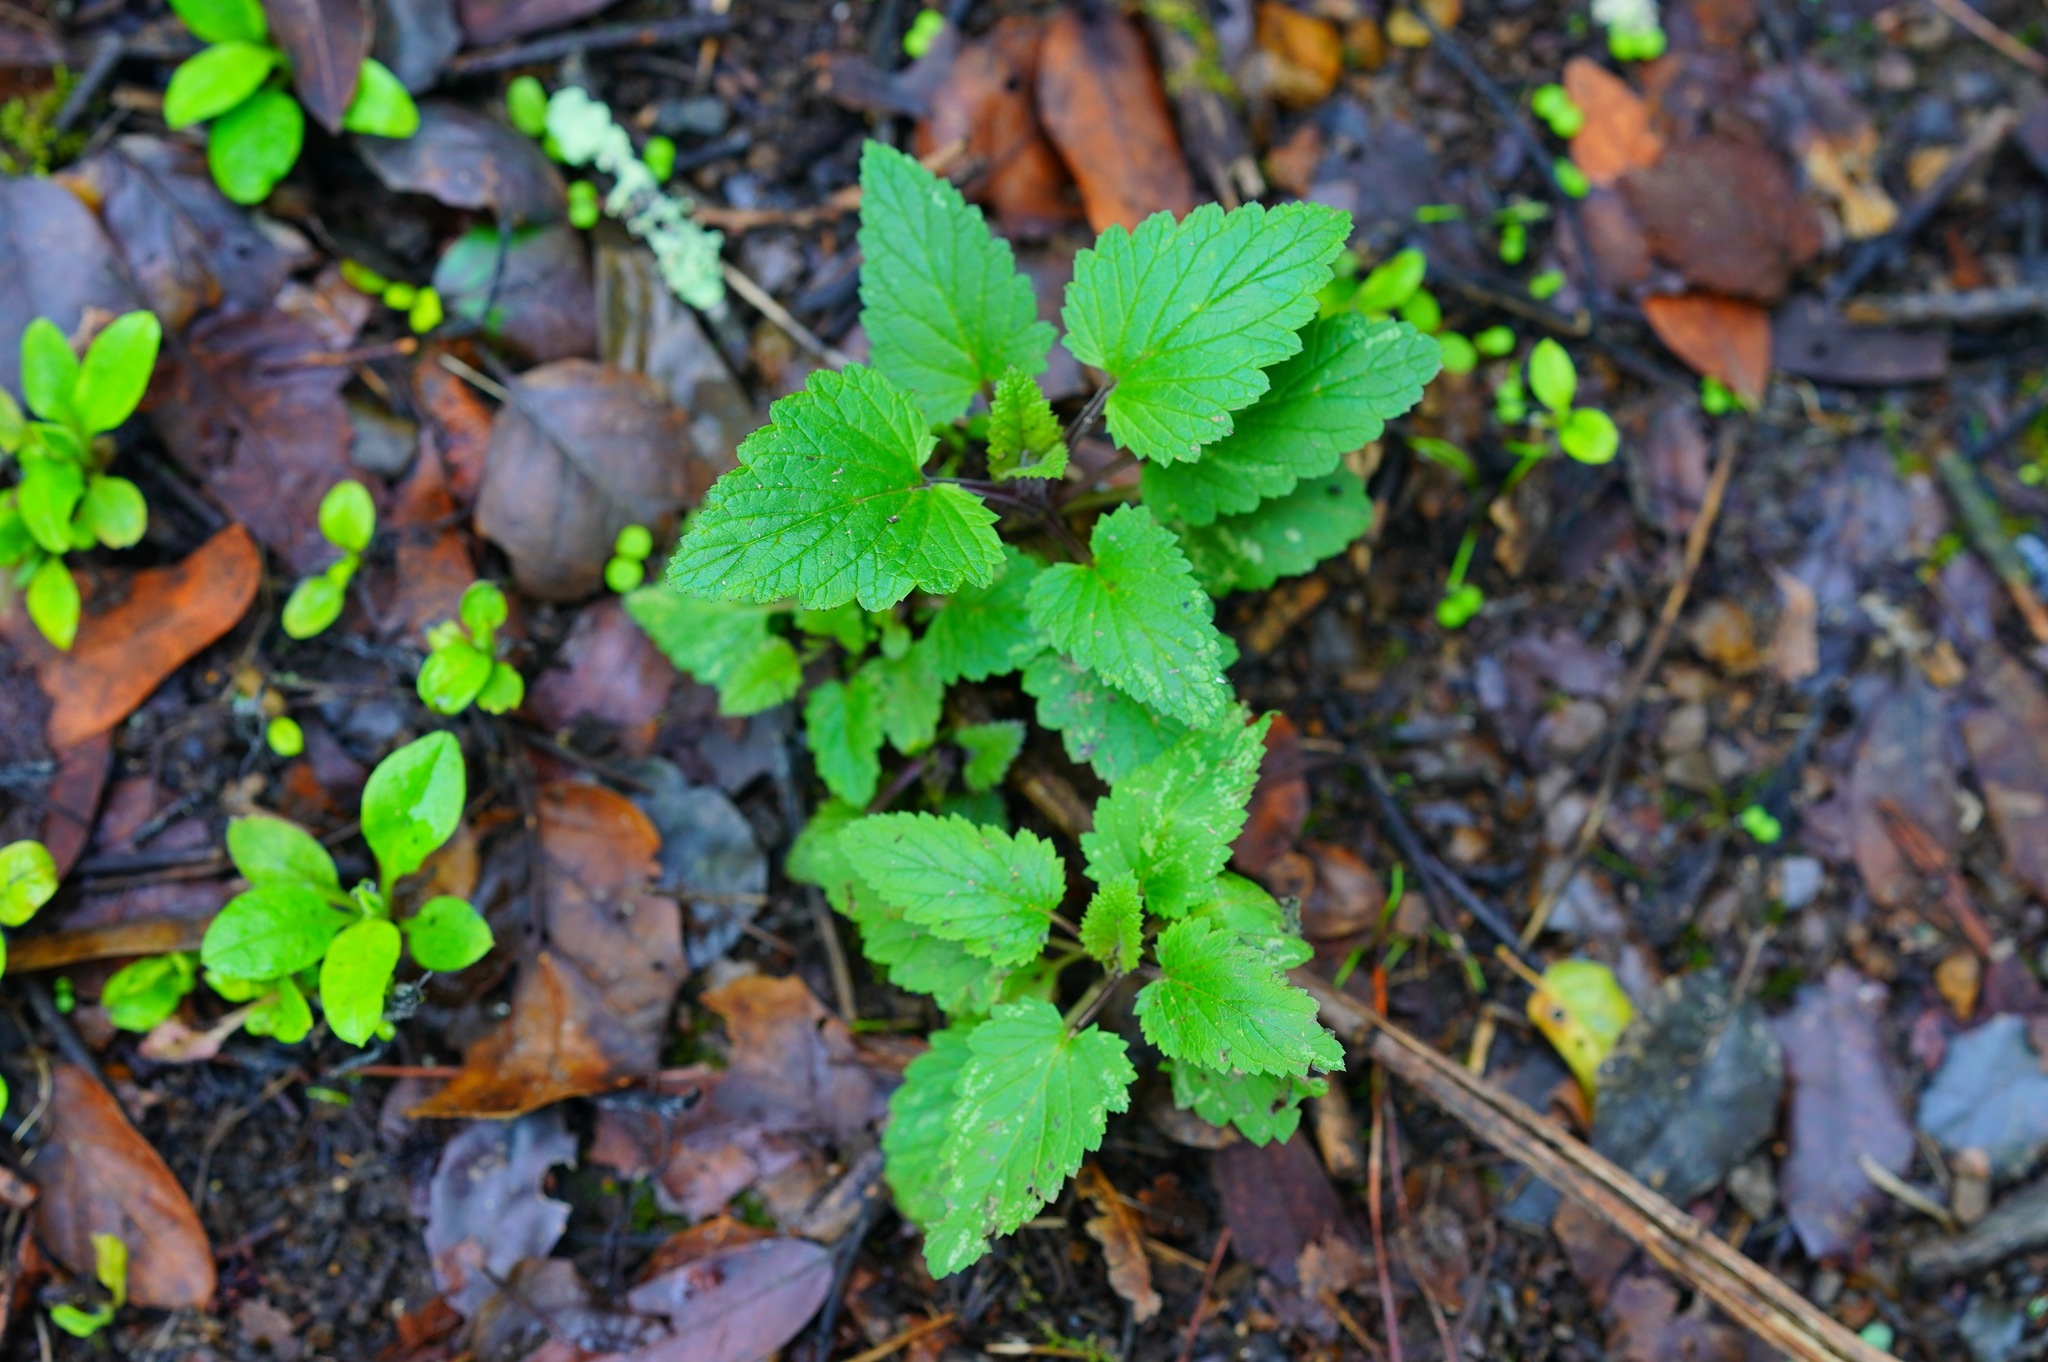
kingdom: Plantae
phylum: Tracheophyta
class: Magnoliopsida
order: Lamiales
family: Scrophulariaceae
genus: Scrophularia
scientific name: Scrophularia californica
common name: California figwort
